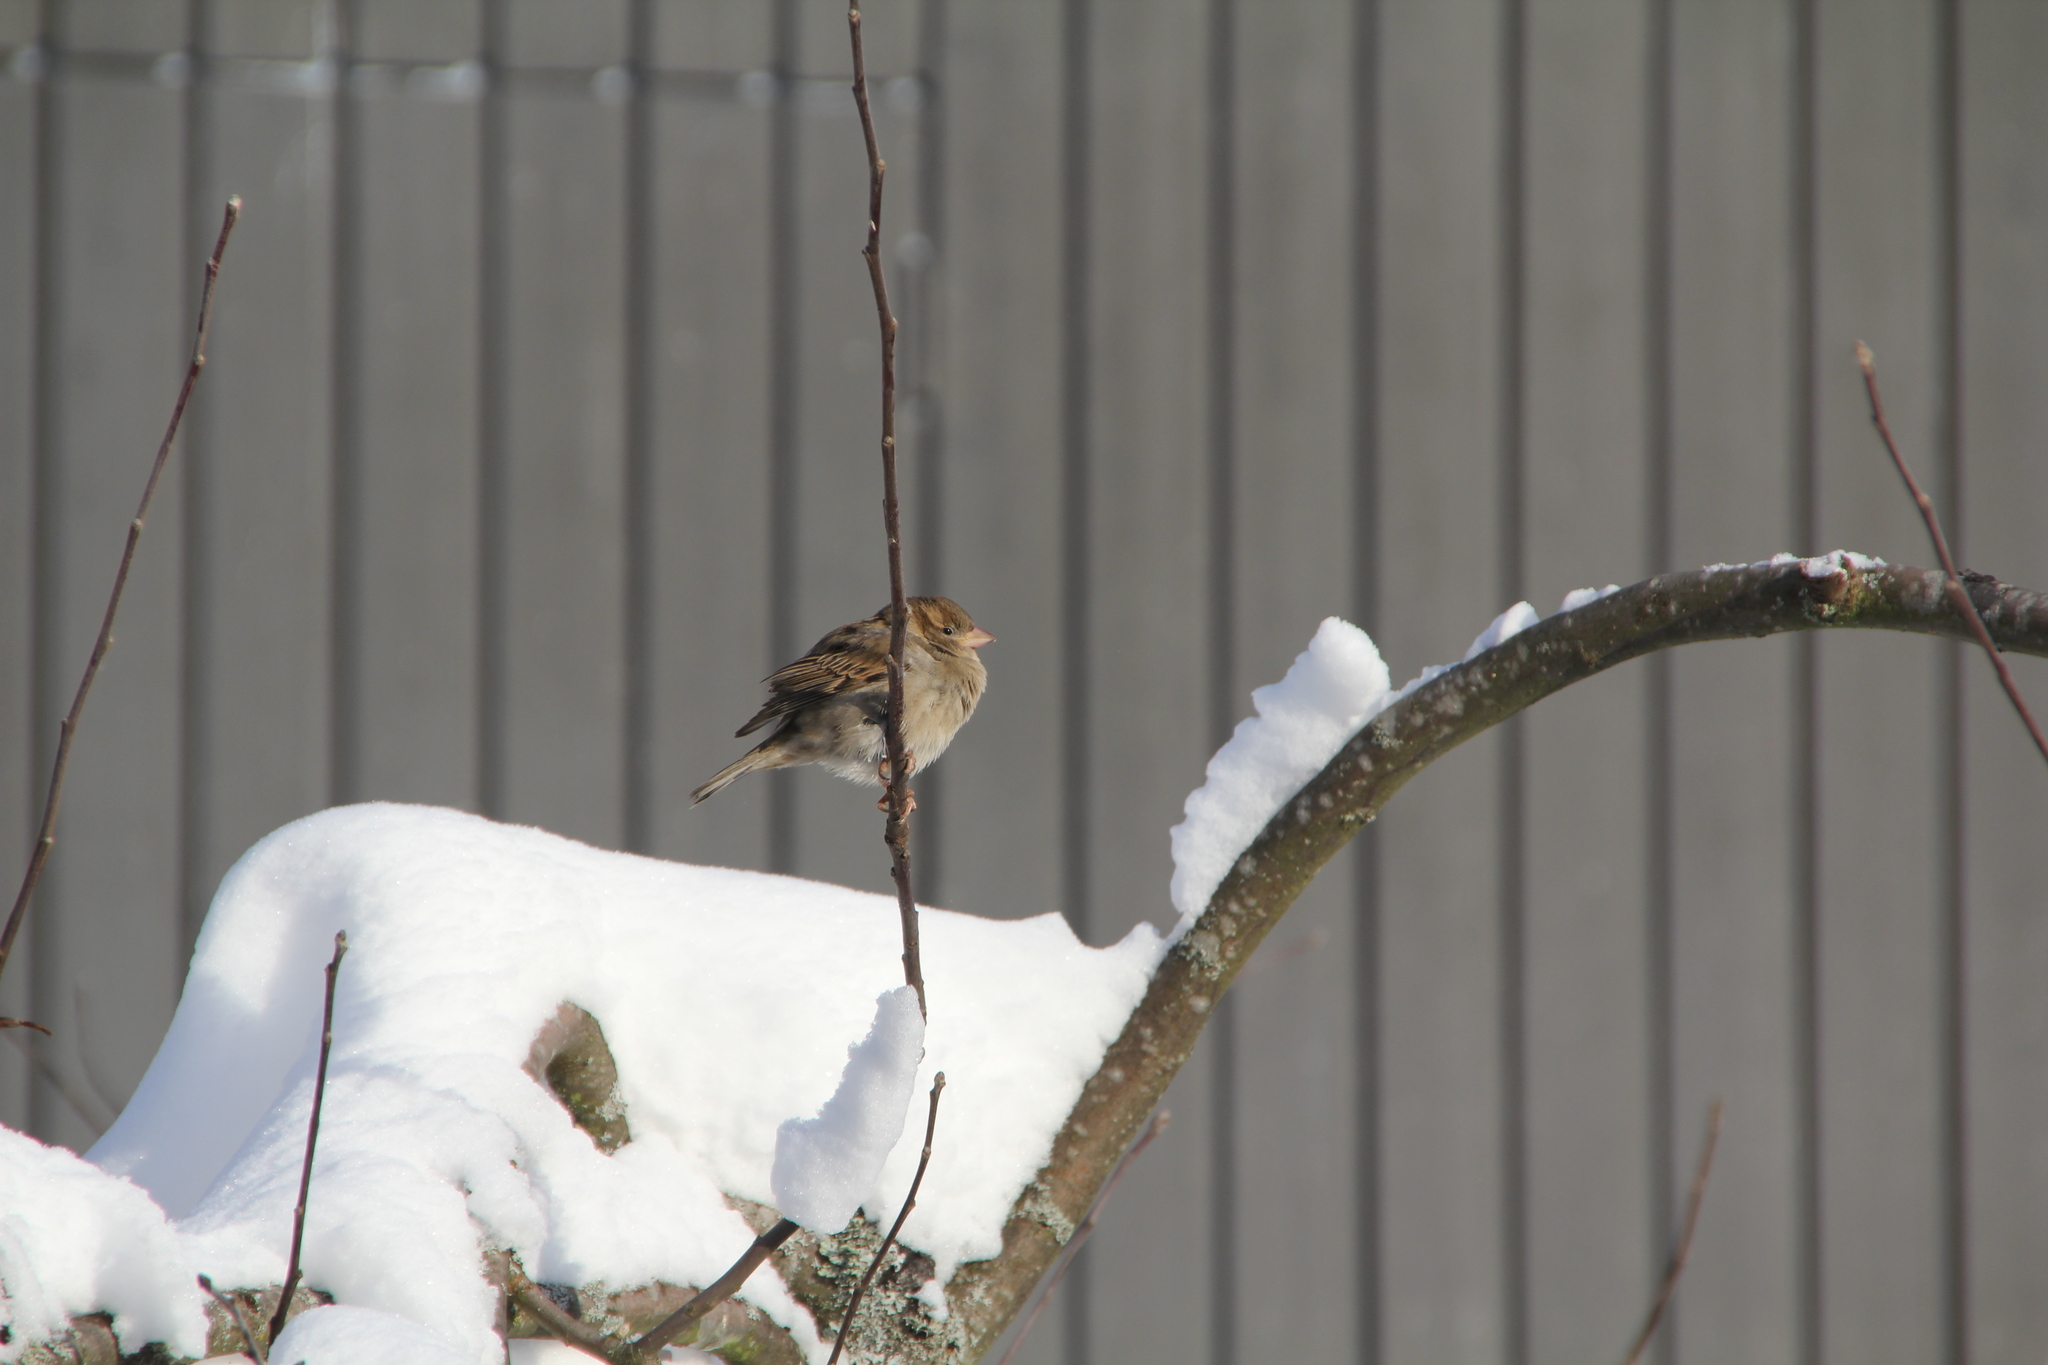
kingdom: Animalia
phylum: Chordata
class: Aves
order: Passeriformes
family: Passeridae
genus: Passer
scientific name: Passer domesticus
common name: House sparrow
